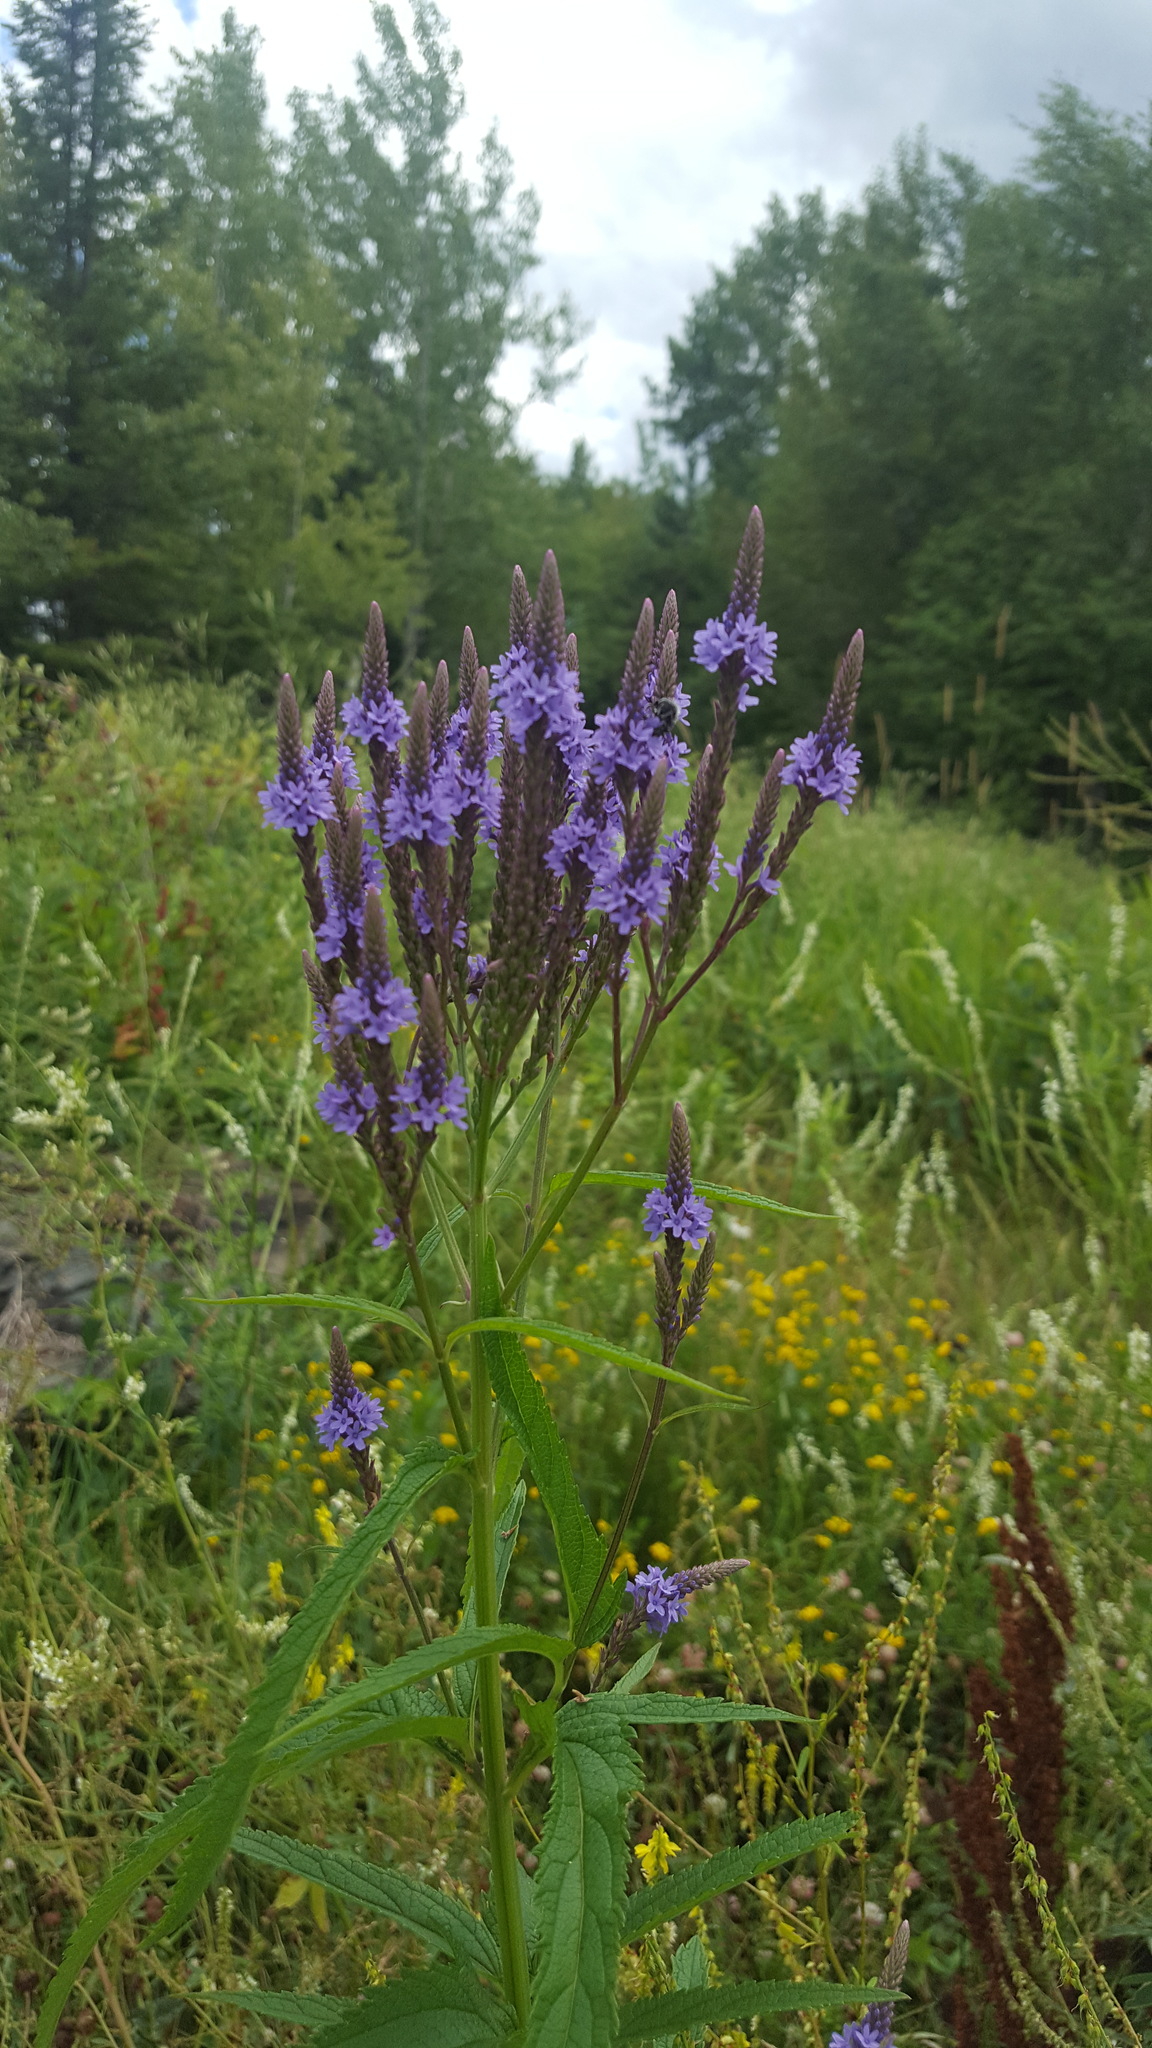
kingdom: Plantae
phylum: Tracheophyta
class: Magnoliopsida
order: Lamiales
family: Verbenaceae
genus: Verbena
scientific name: Verbena hastata
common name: American blue vervain
